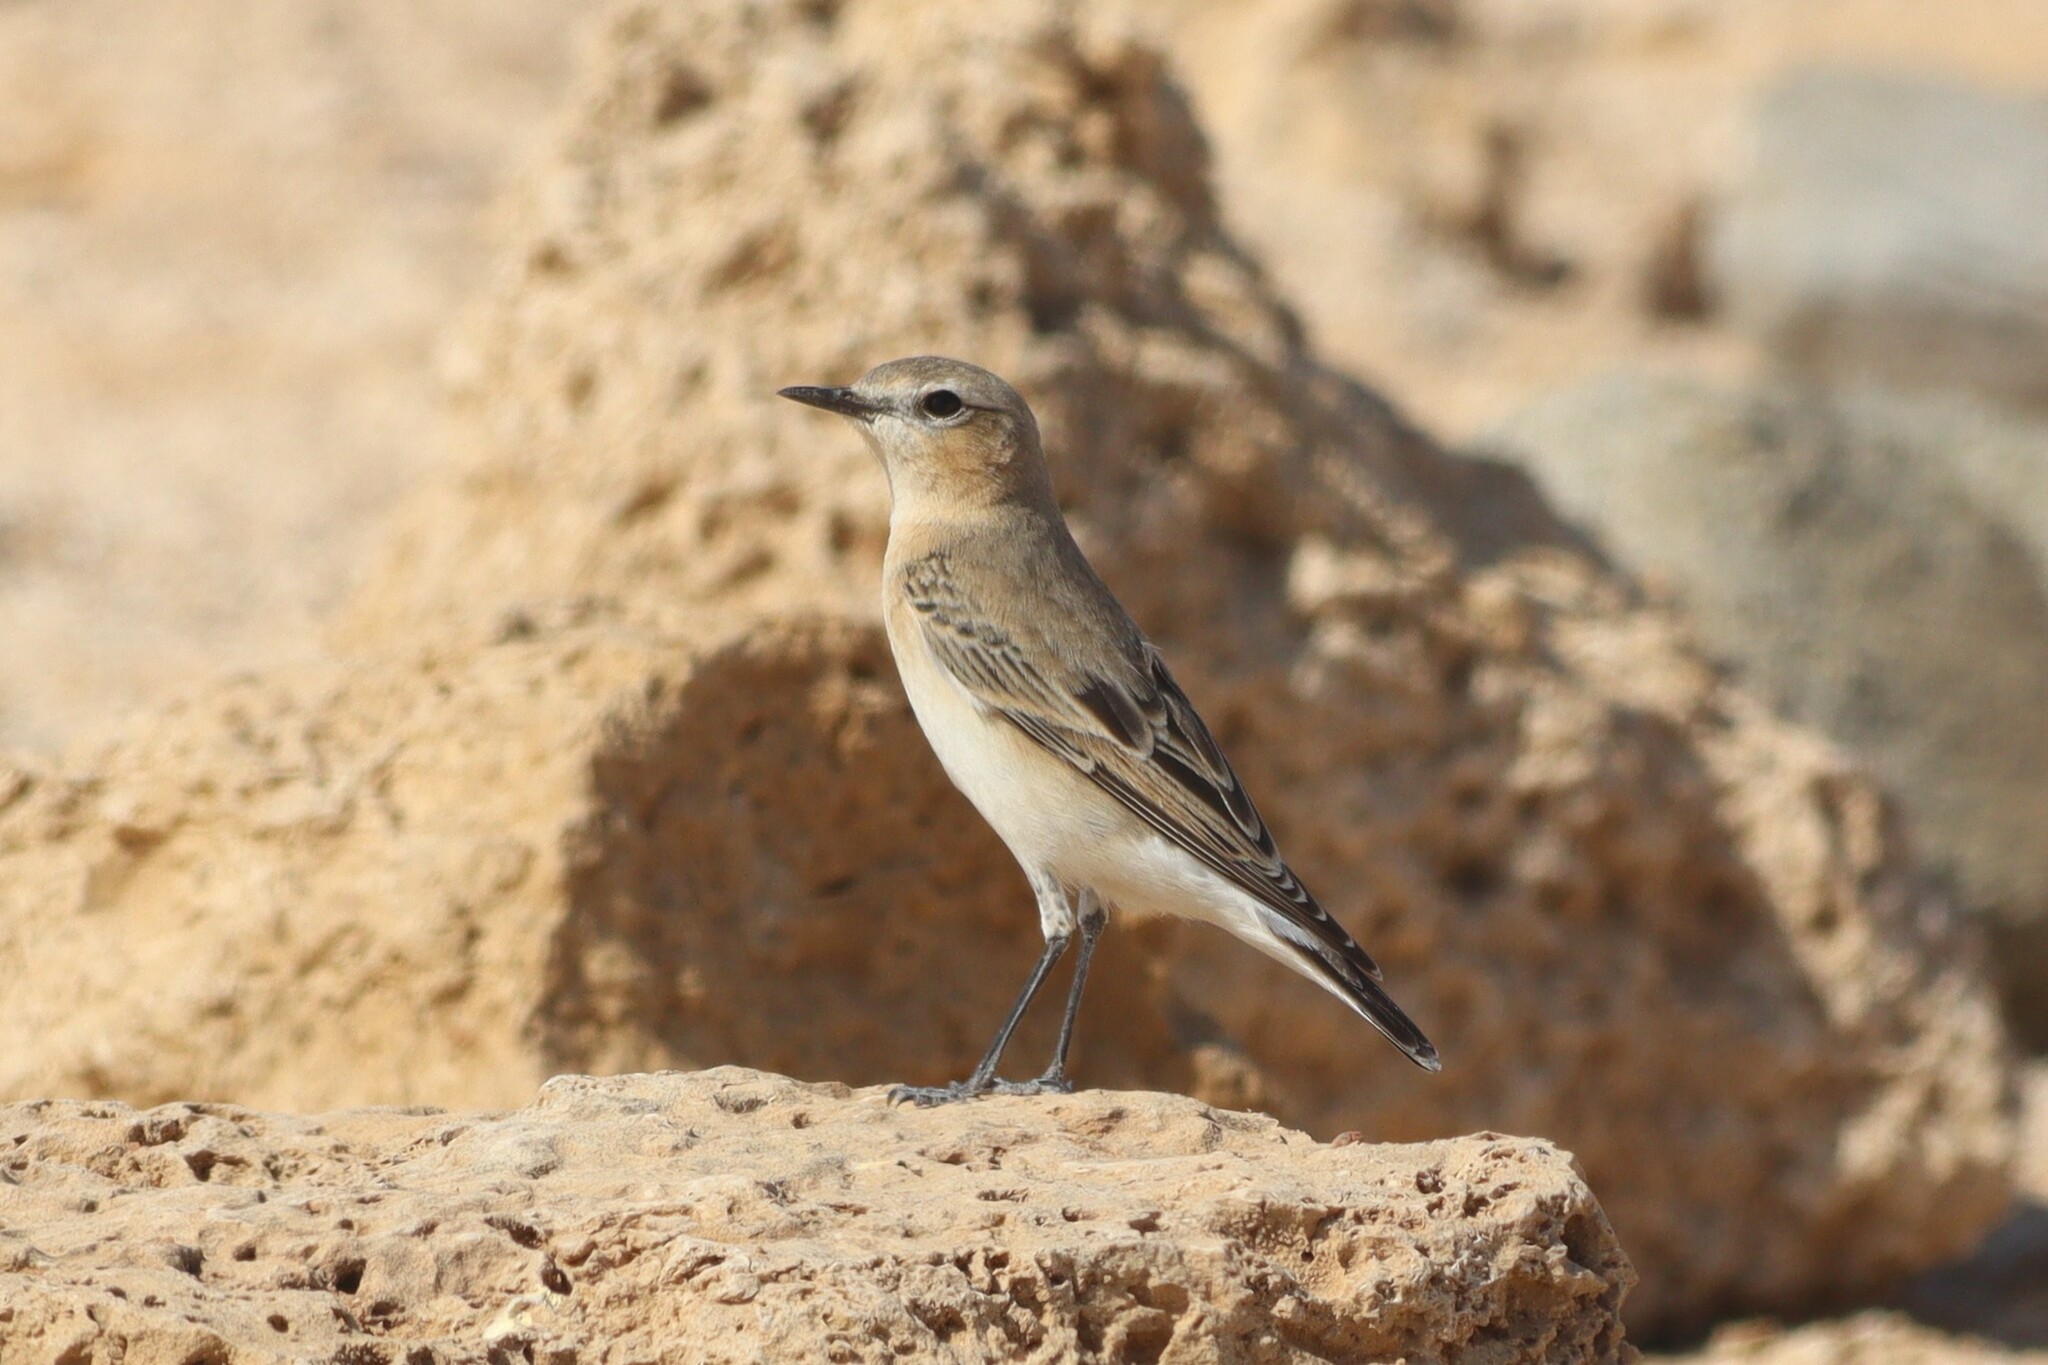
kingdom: Animalia
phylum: Chordata
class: Aves
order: Passeriformes
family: Muscicapidae
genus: Oenanthe
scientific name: Oenanthe oenanthe
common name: Northern wheatear
